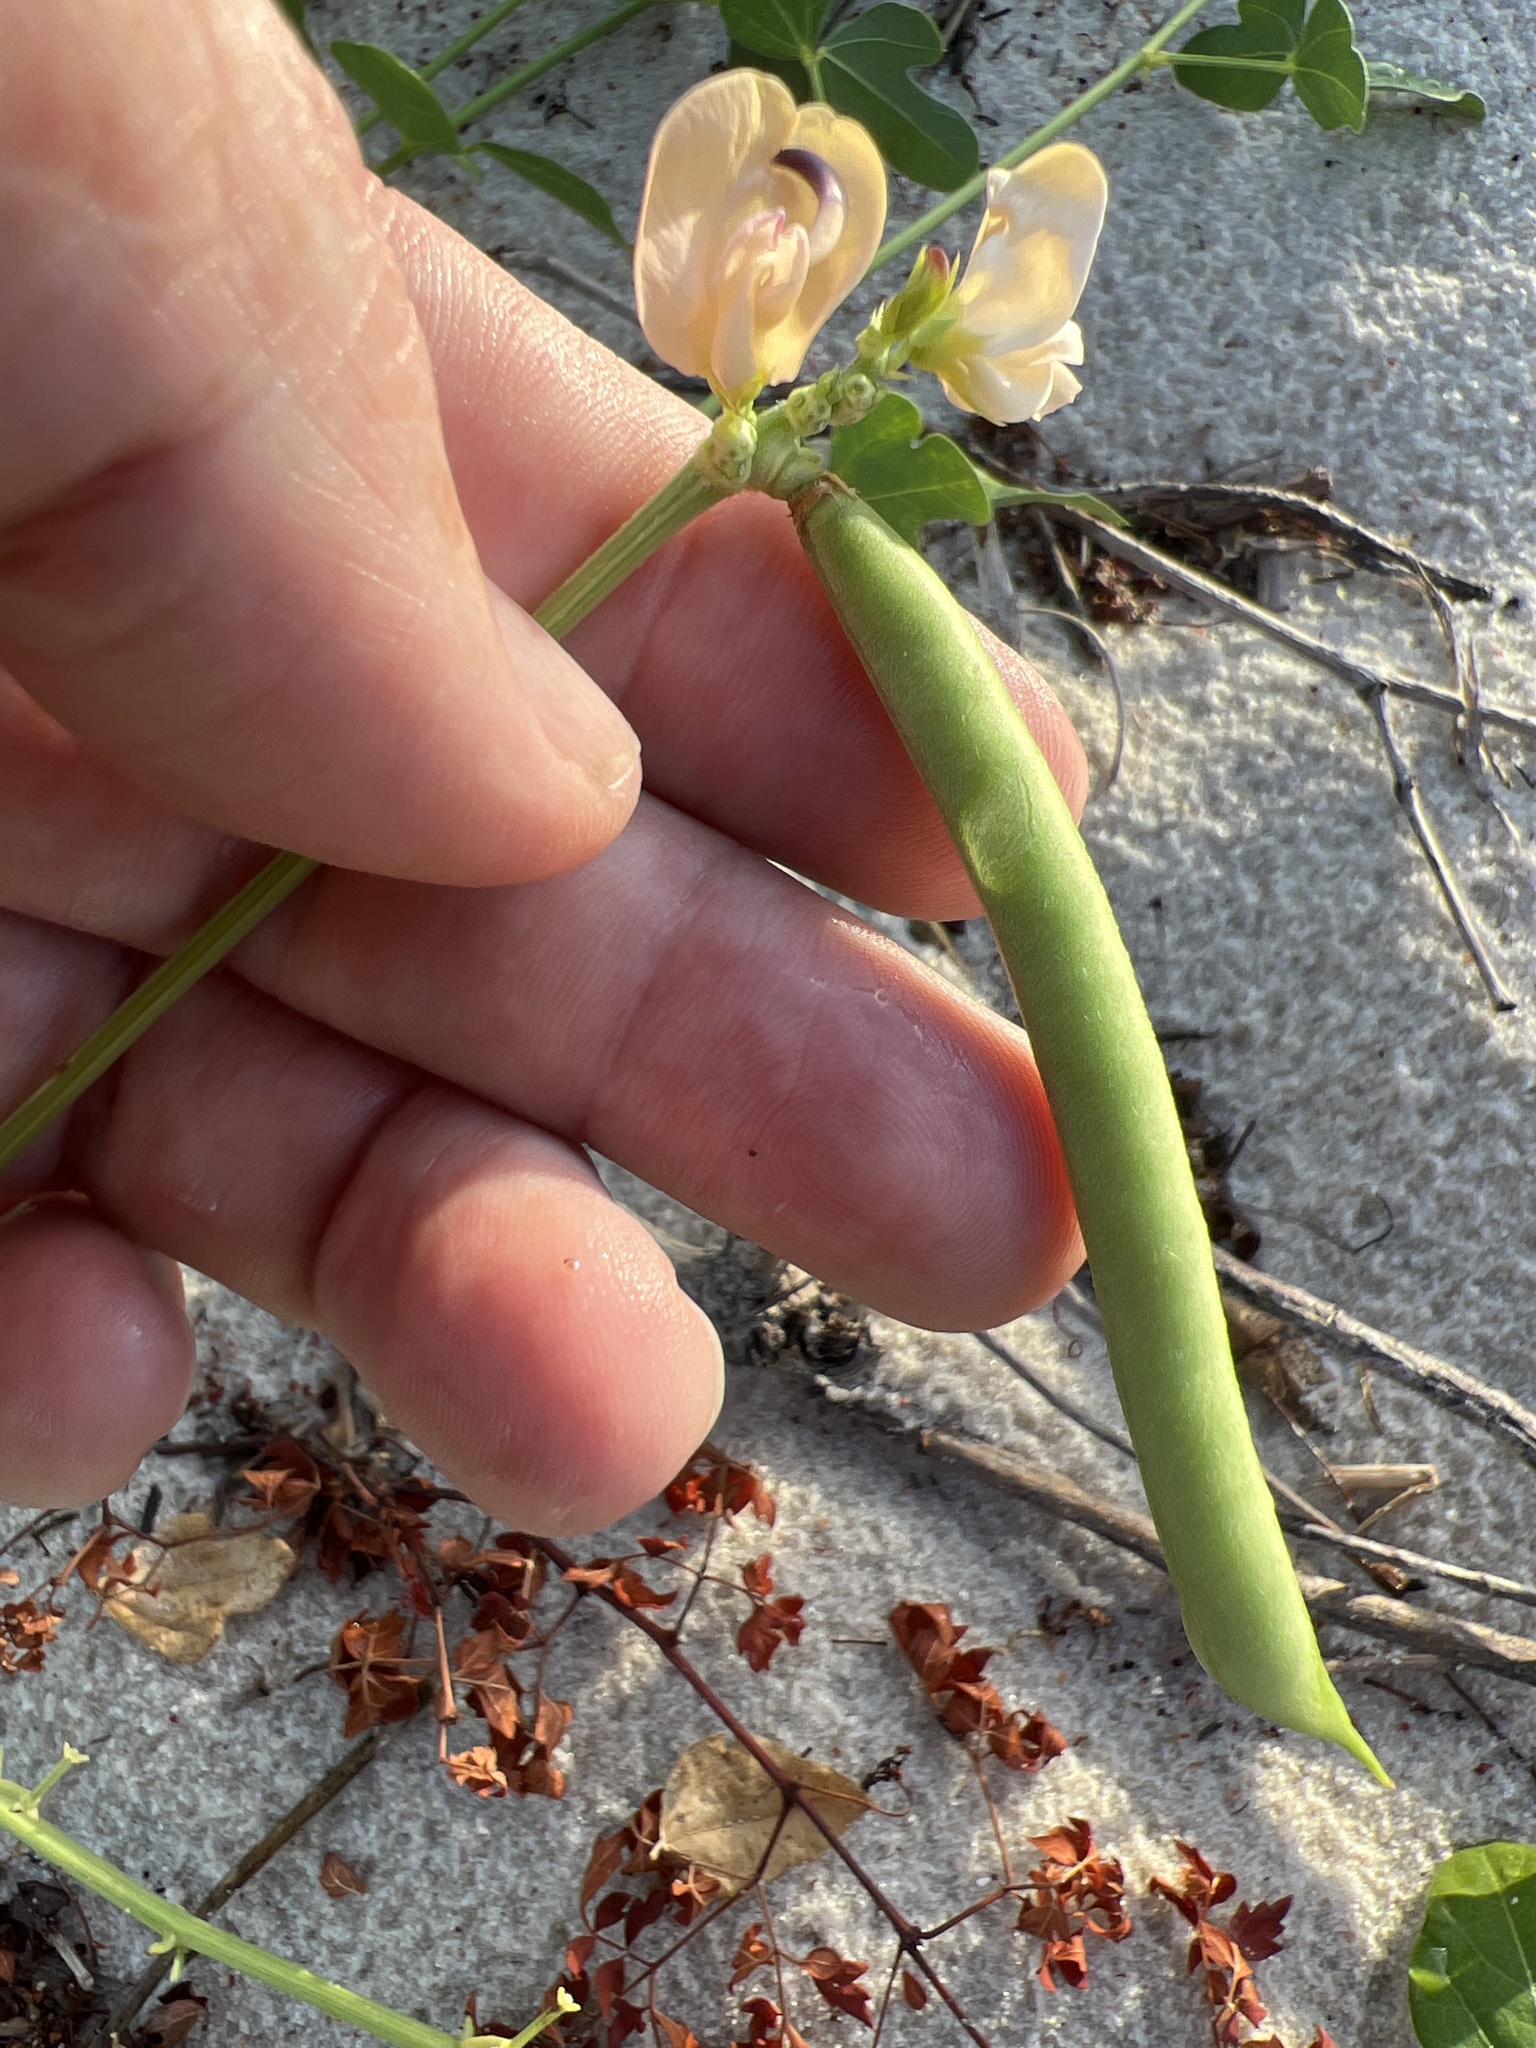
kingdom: Plantae
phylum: Tracheophyta
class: Magnoliopsida
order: Fabales
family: Fabaceae
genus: Strophostyles
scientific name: Strophostyles helvola
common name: Trailing wild bean
